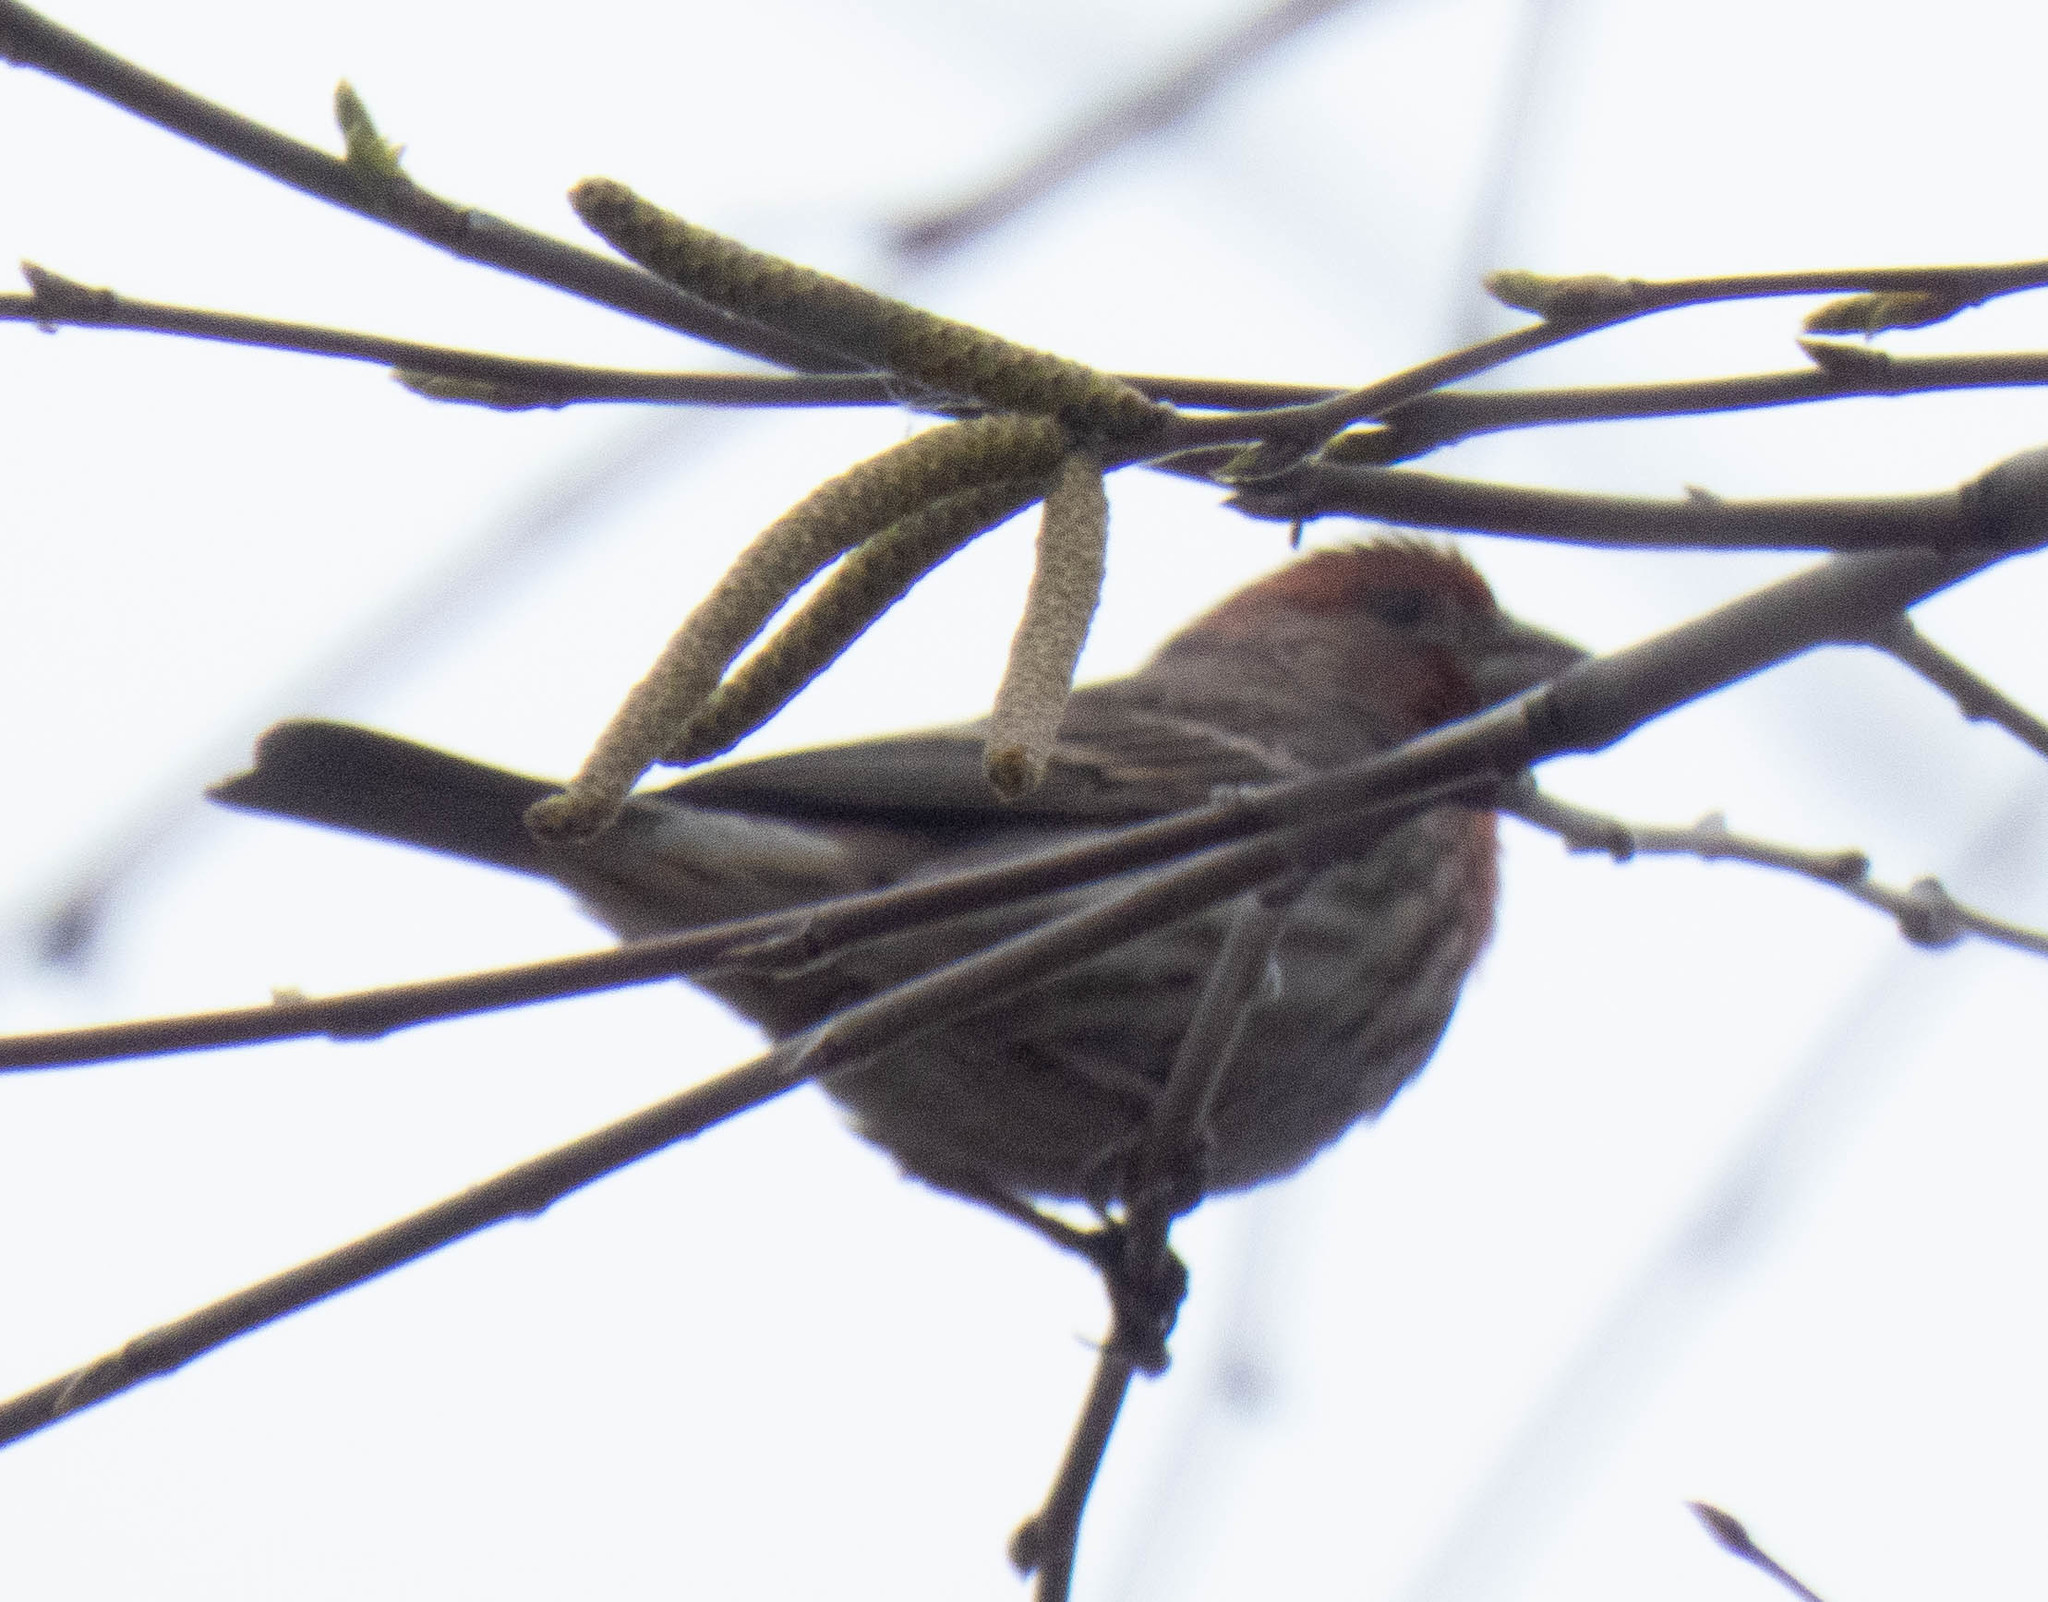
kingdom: Animalia
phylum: Chordata
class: Aves
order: Passeriformes
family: Fringillidae
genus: Haemorhous
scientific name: Haemorhous mexicanus
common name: House finch
